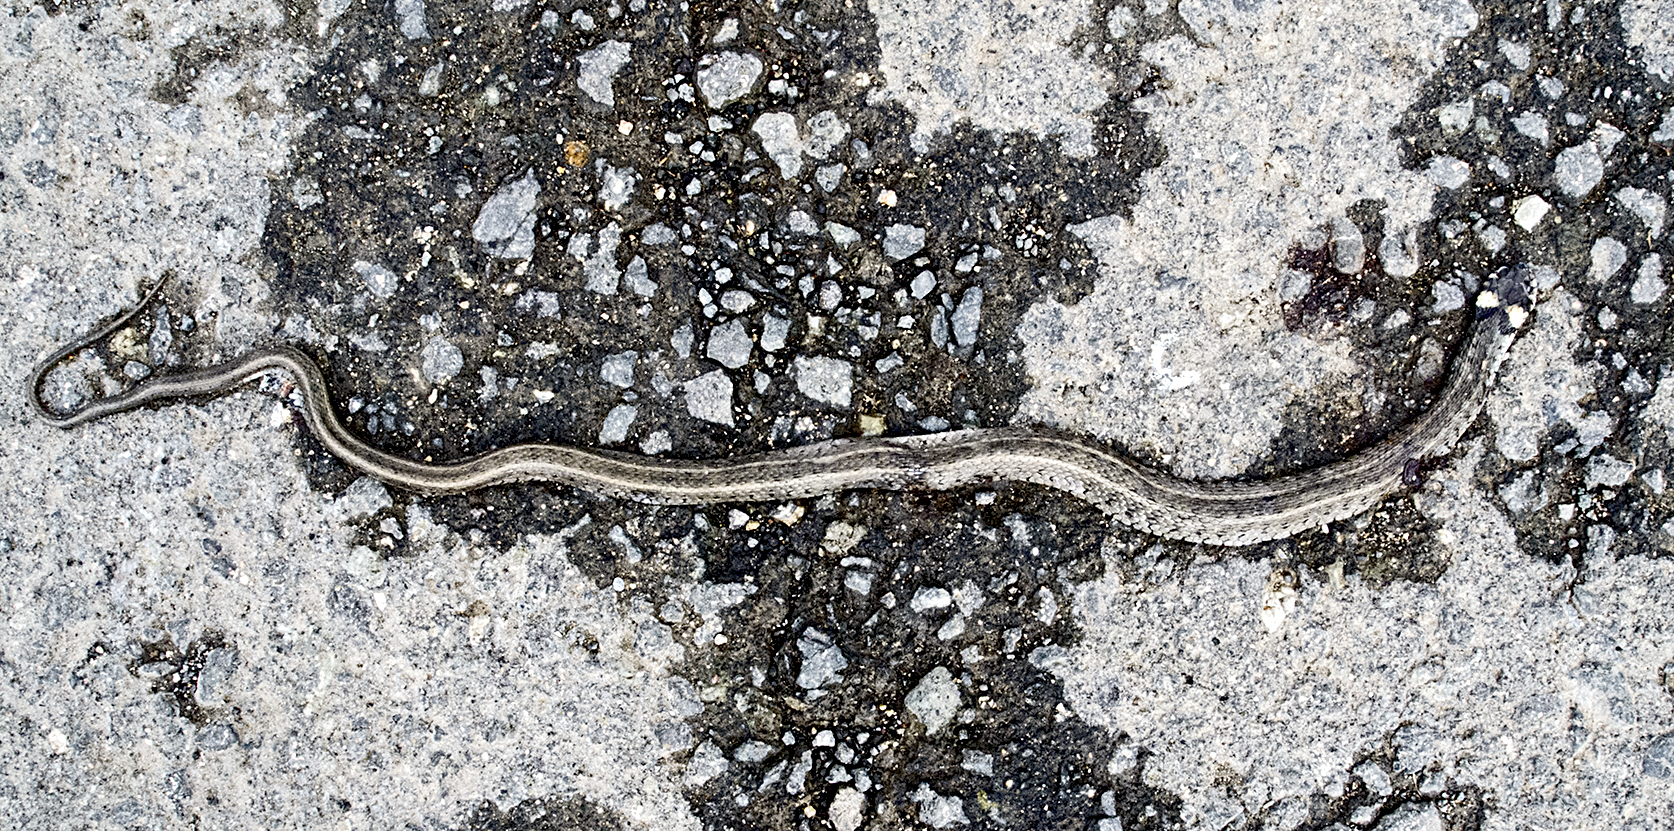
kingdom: Animalia
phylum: Chordata
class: Squamata
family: Colubridae
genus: Natrix
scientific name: Natrix natrix
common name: Grass snake
